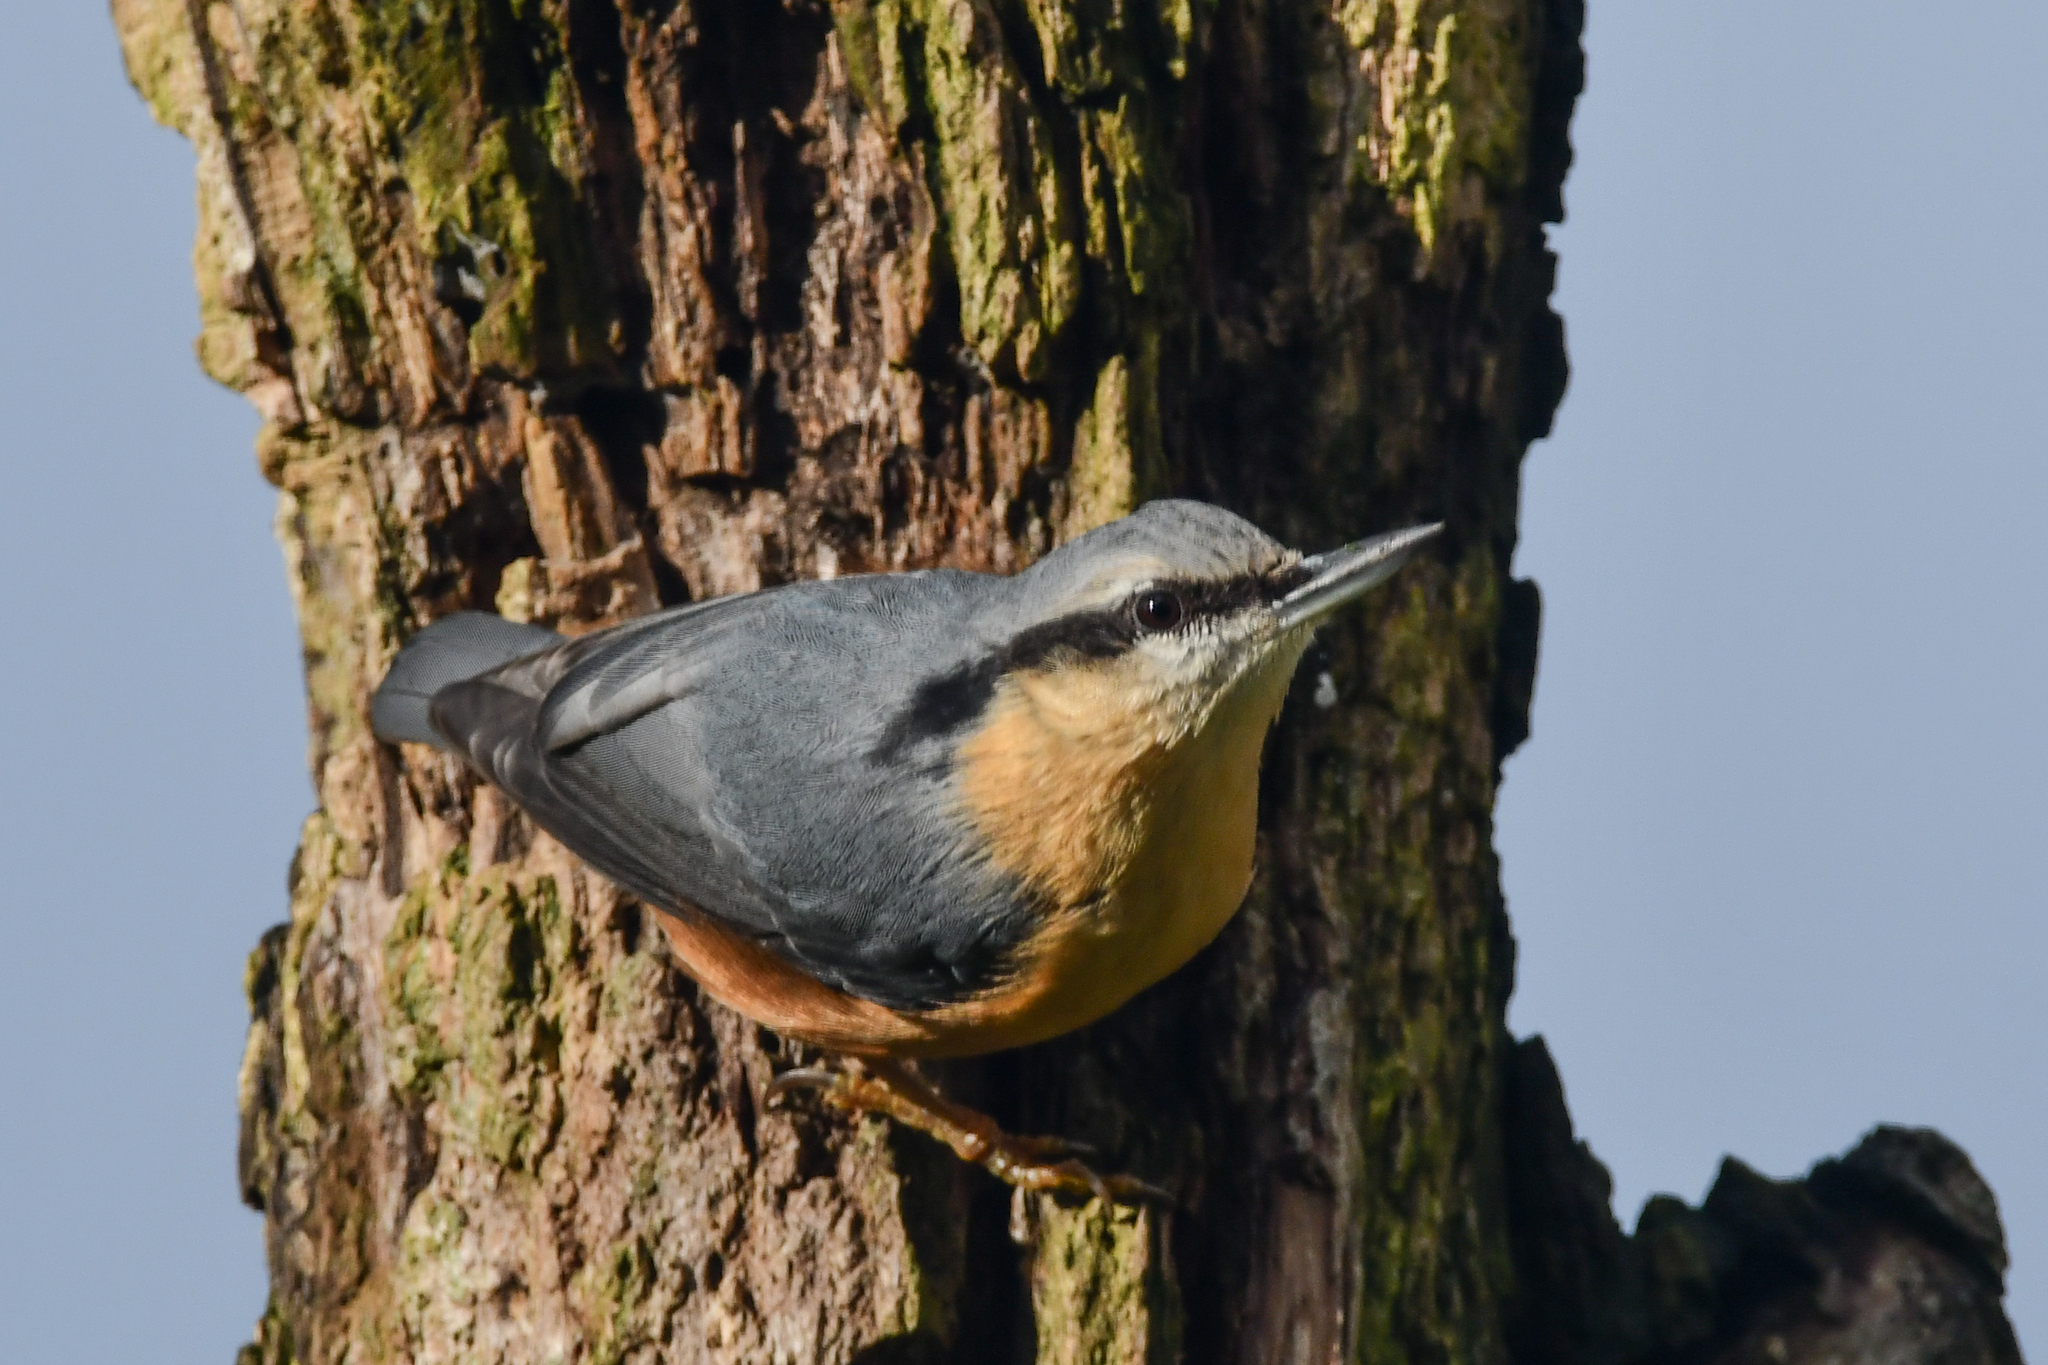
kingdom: Animalia
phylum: Chordata
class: Aves
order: Passeriformes
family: Sittidae
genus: Sitta
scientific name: Sitta europaea
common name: Eurasian nuthatch
